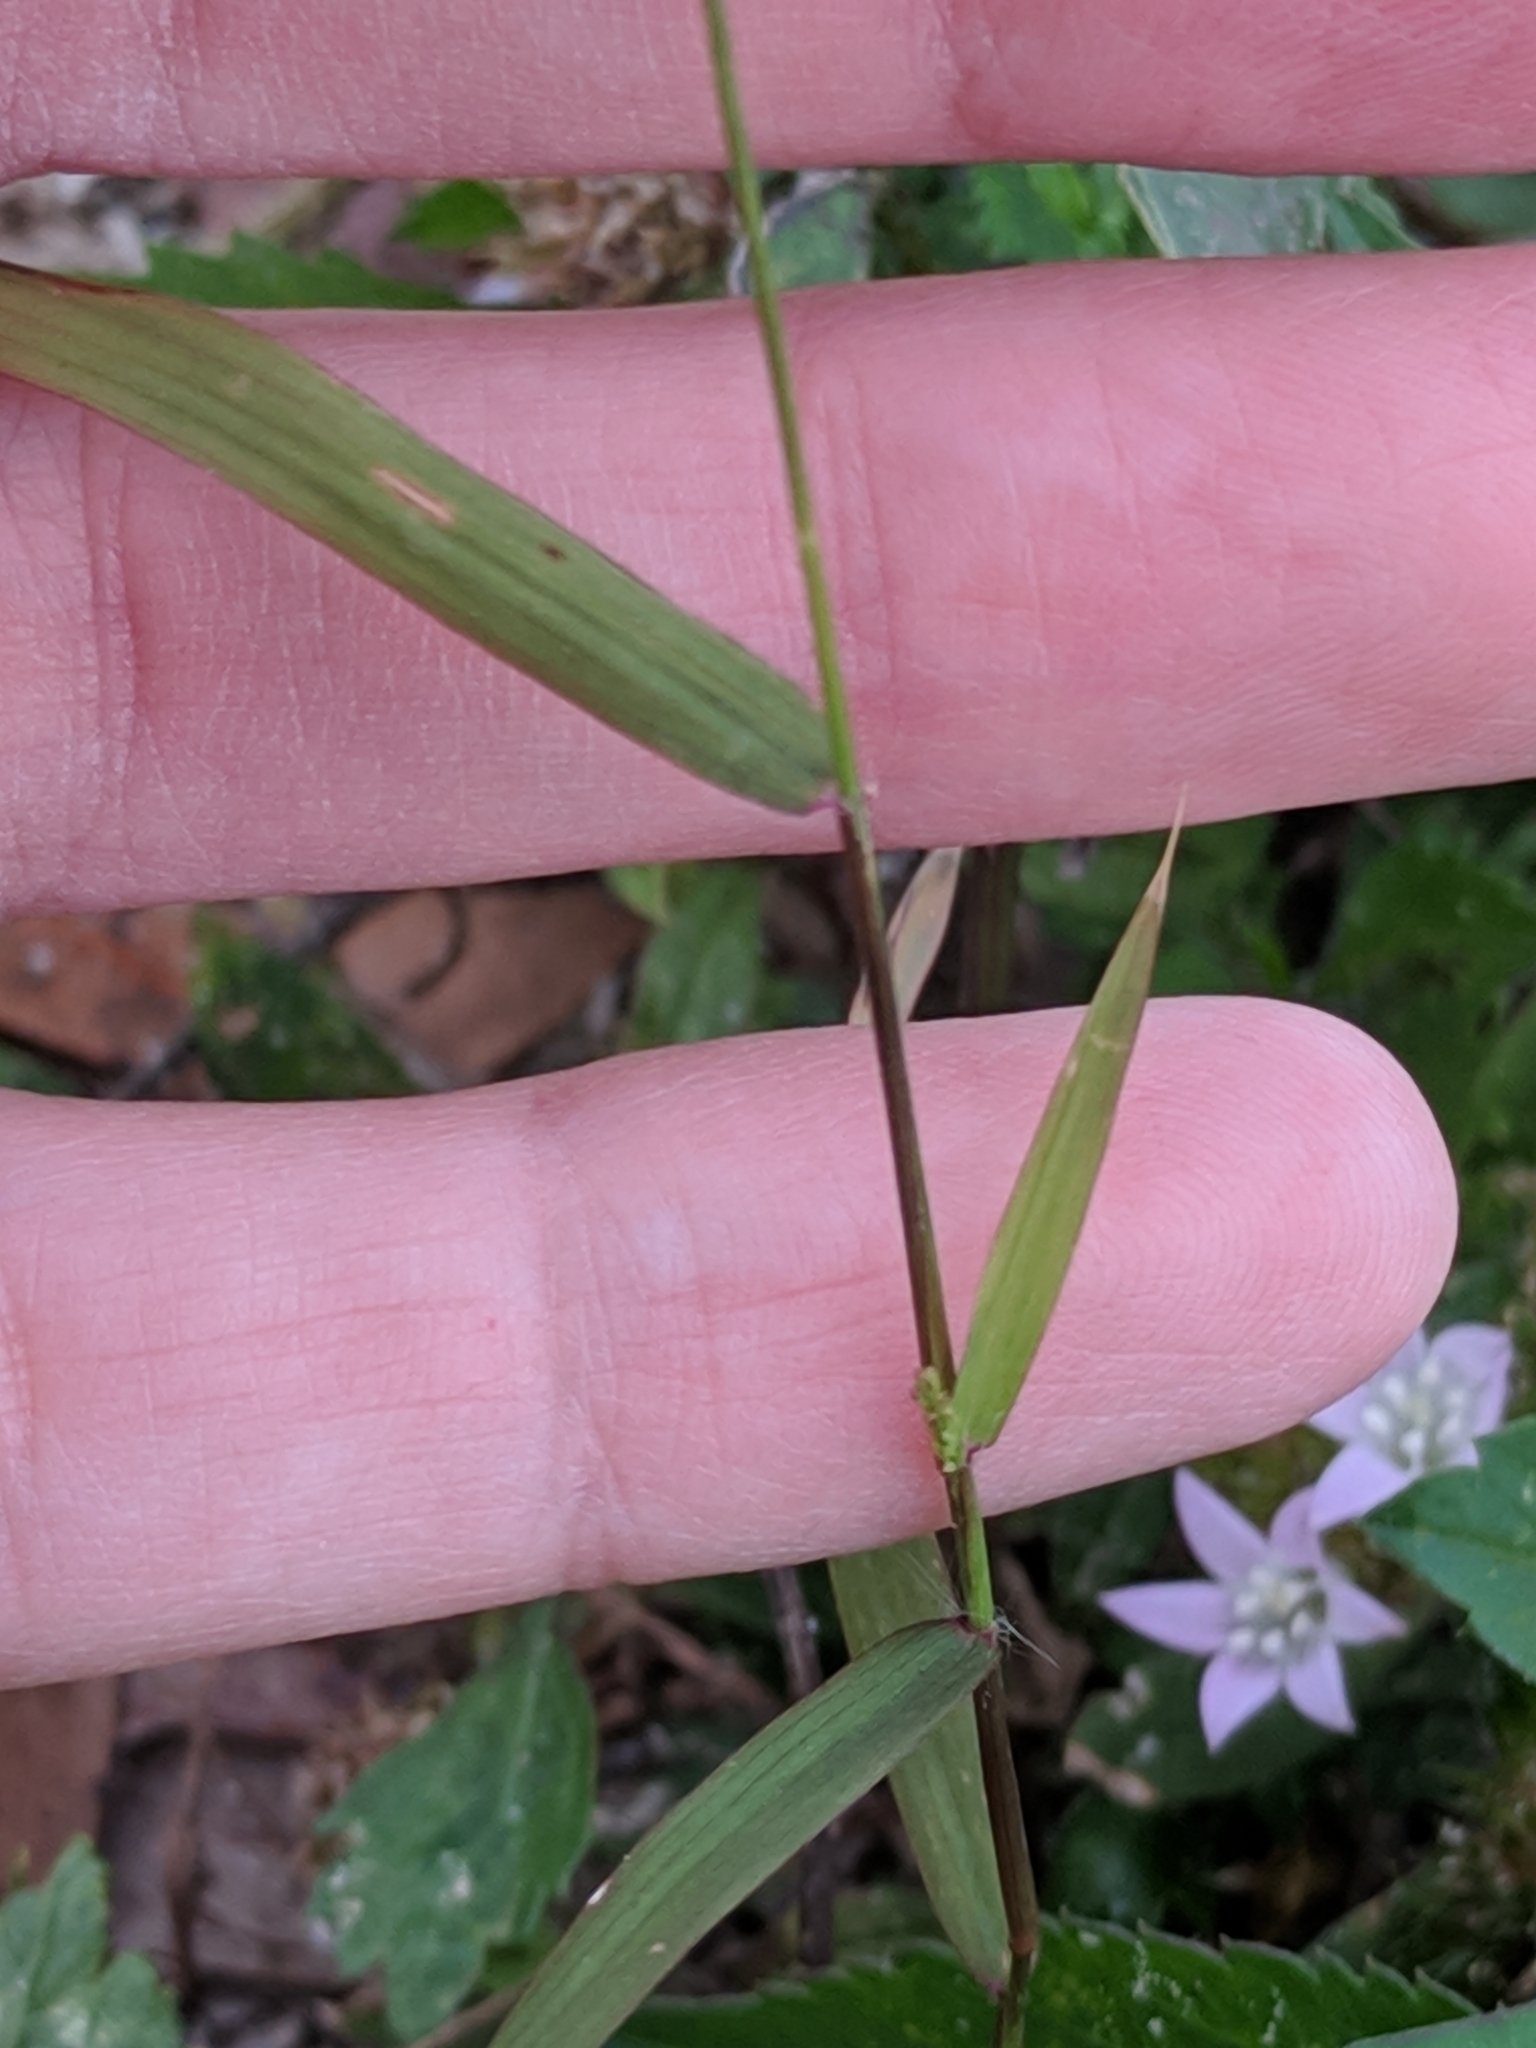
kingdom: Plantae
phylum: Tracheophyta
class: Liliopsida
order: Poales
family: Poaceae
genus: Eragrostis
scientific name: Eragrostis ciliaris
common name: Gophertail lovegrass
